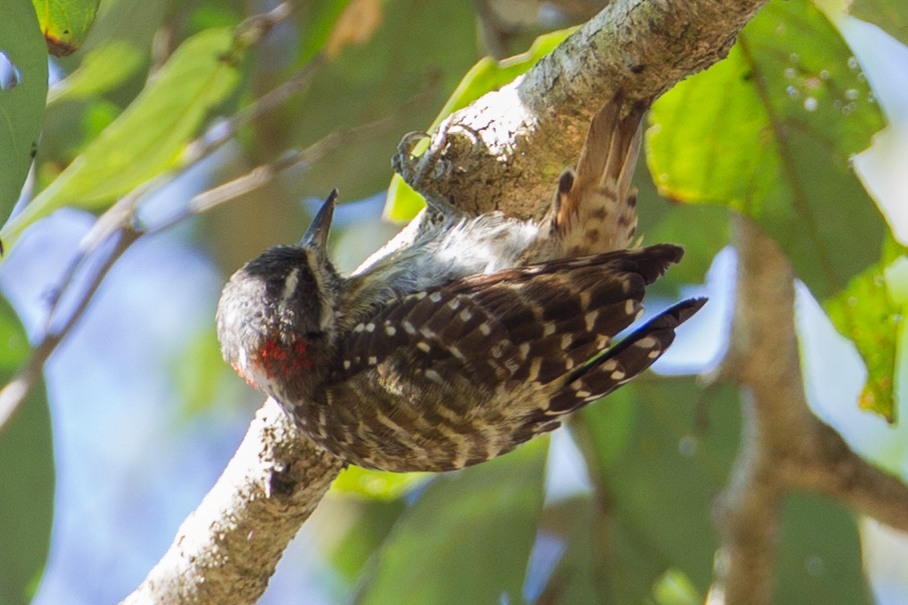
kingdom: Animalia
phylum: Chordata
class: Aves
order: Piciformes
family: Picidae
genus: Yungipicus
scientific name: Yungipicus temminckii
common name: Sulawesi pygmy woodpecker
